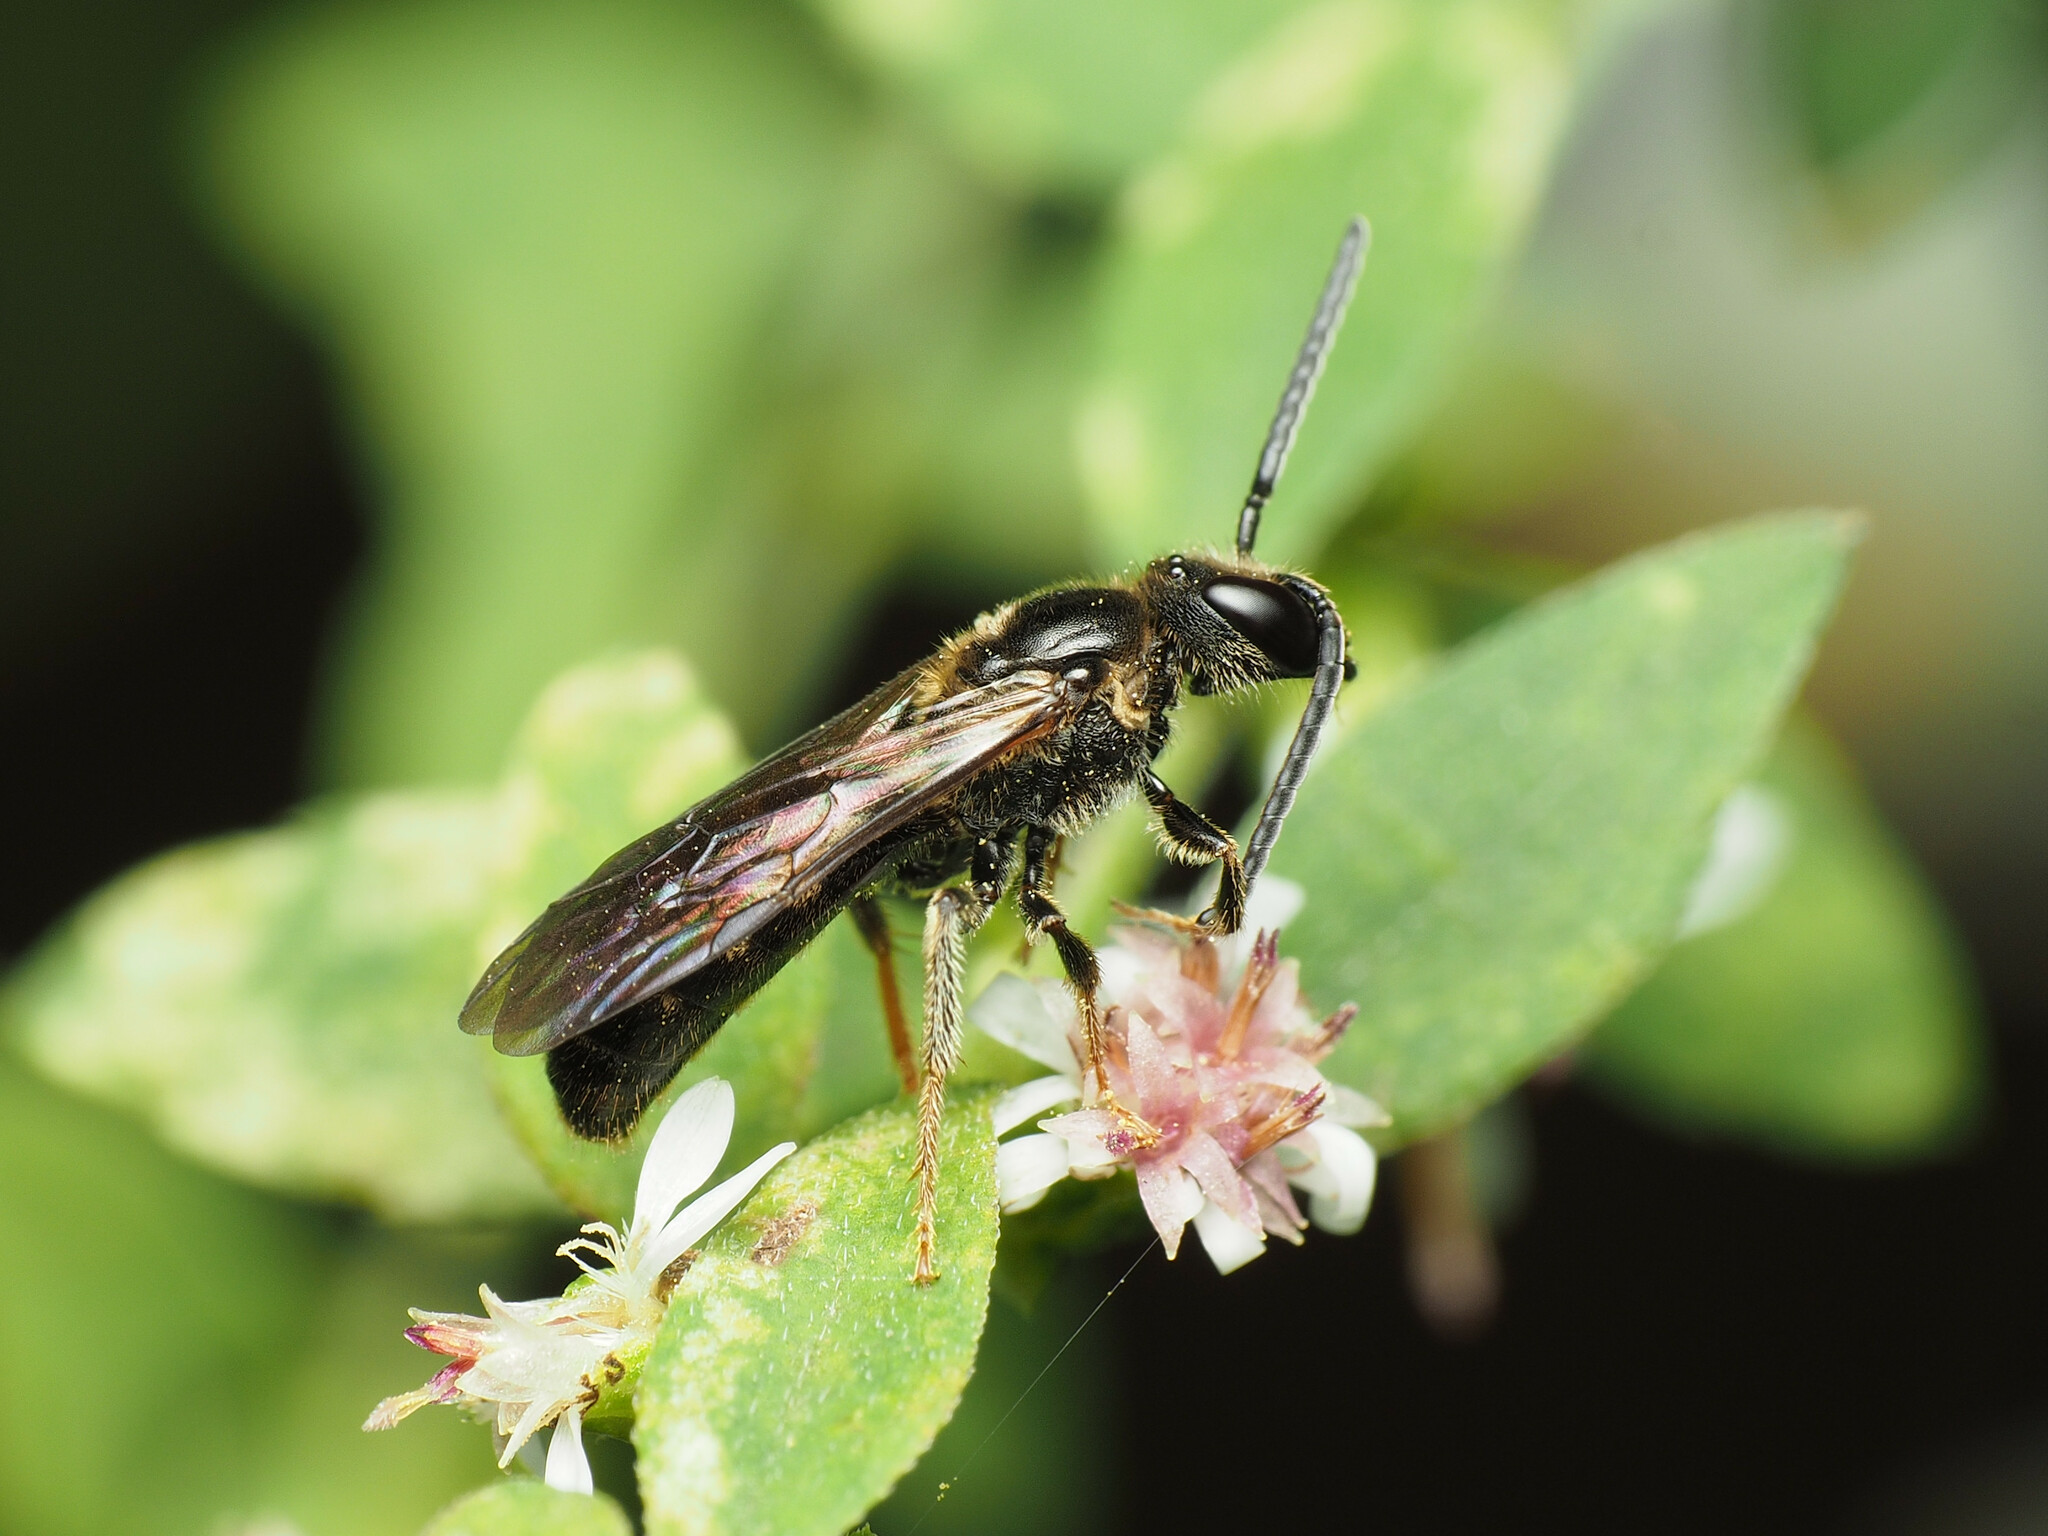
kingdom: Animalia
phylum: Arthropoda
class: Insecta
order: Hymenoptera
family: Halictidae
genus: Lasioglossum
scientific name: Lasioglossum fuscipenne
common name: Brown-winged sweat bee
